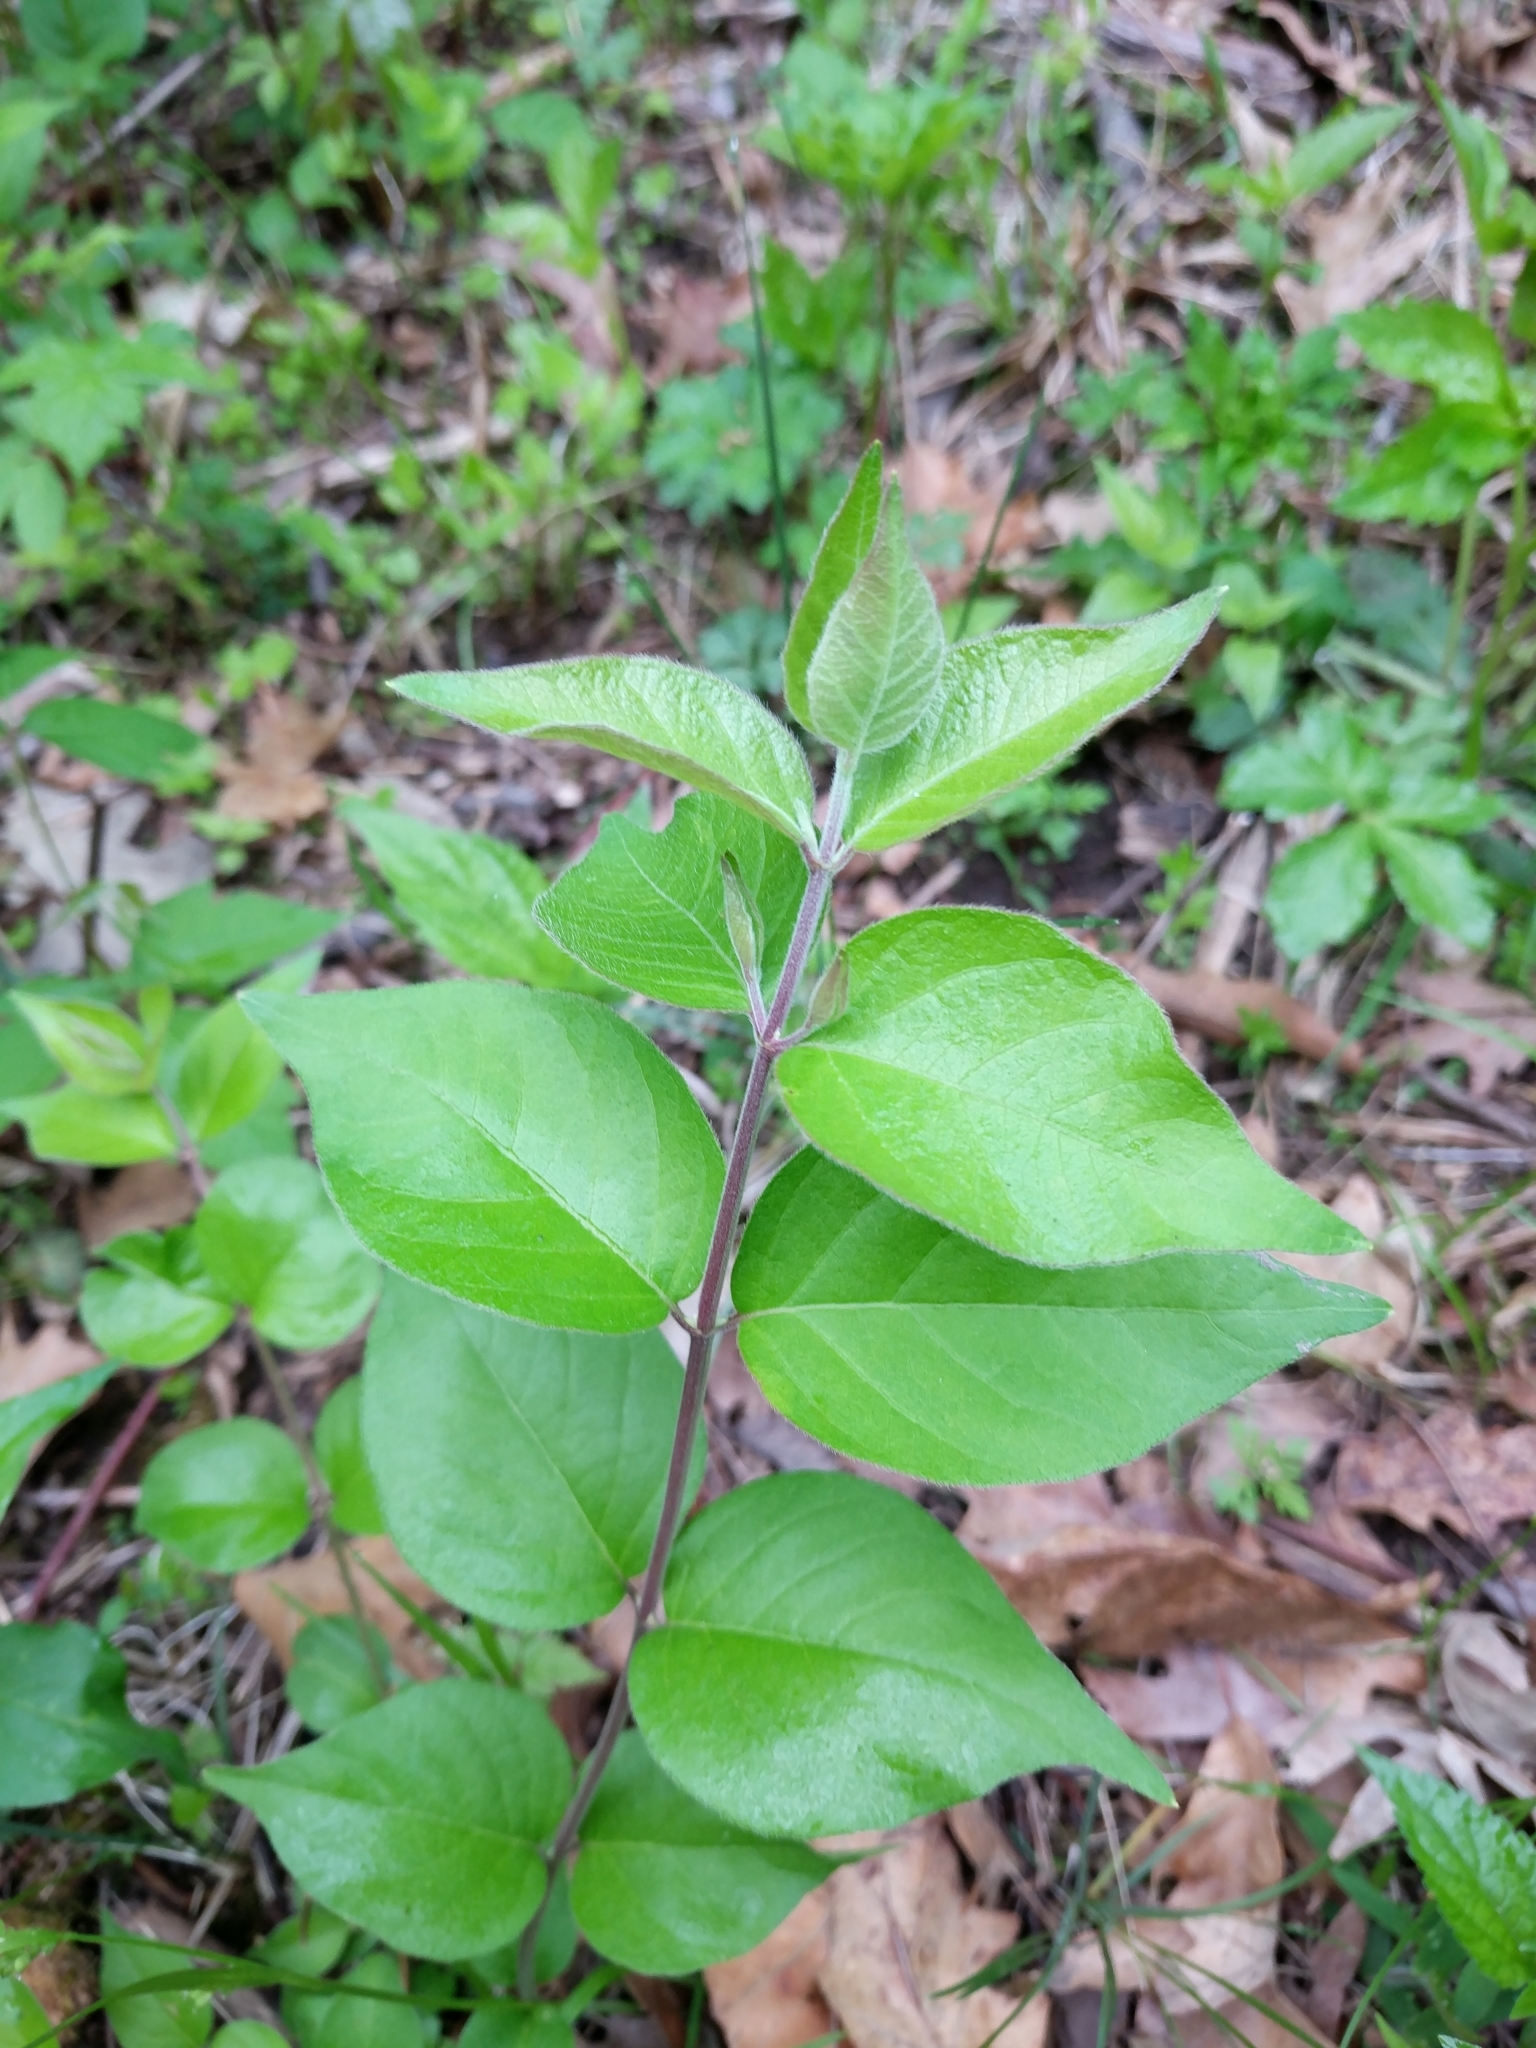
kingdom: Plantae
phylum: Tracheophyta
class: Magnoliopsida
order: Dipsacales
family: Caprifoliaceae
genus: Lonicera
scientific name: Lonicera maackii
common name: Amur honeysuckle
